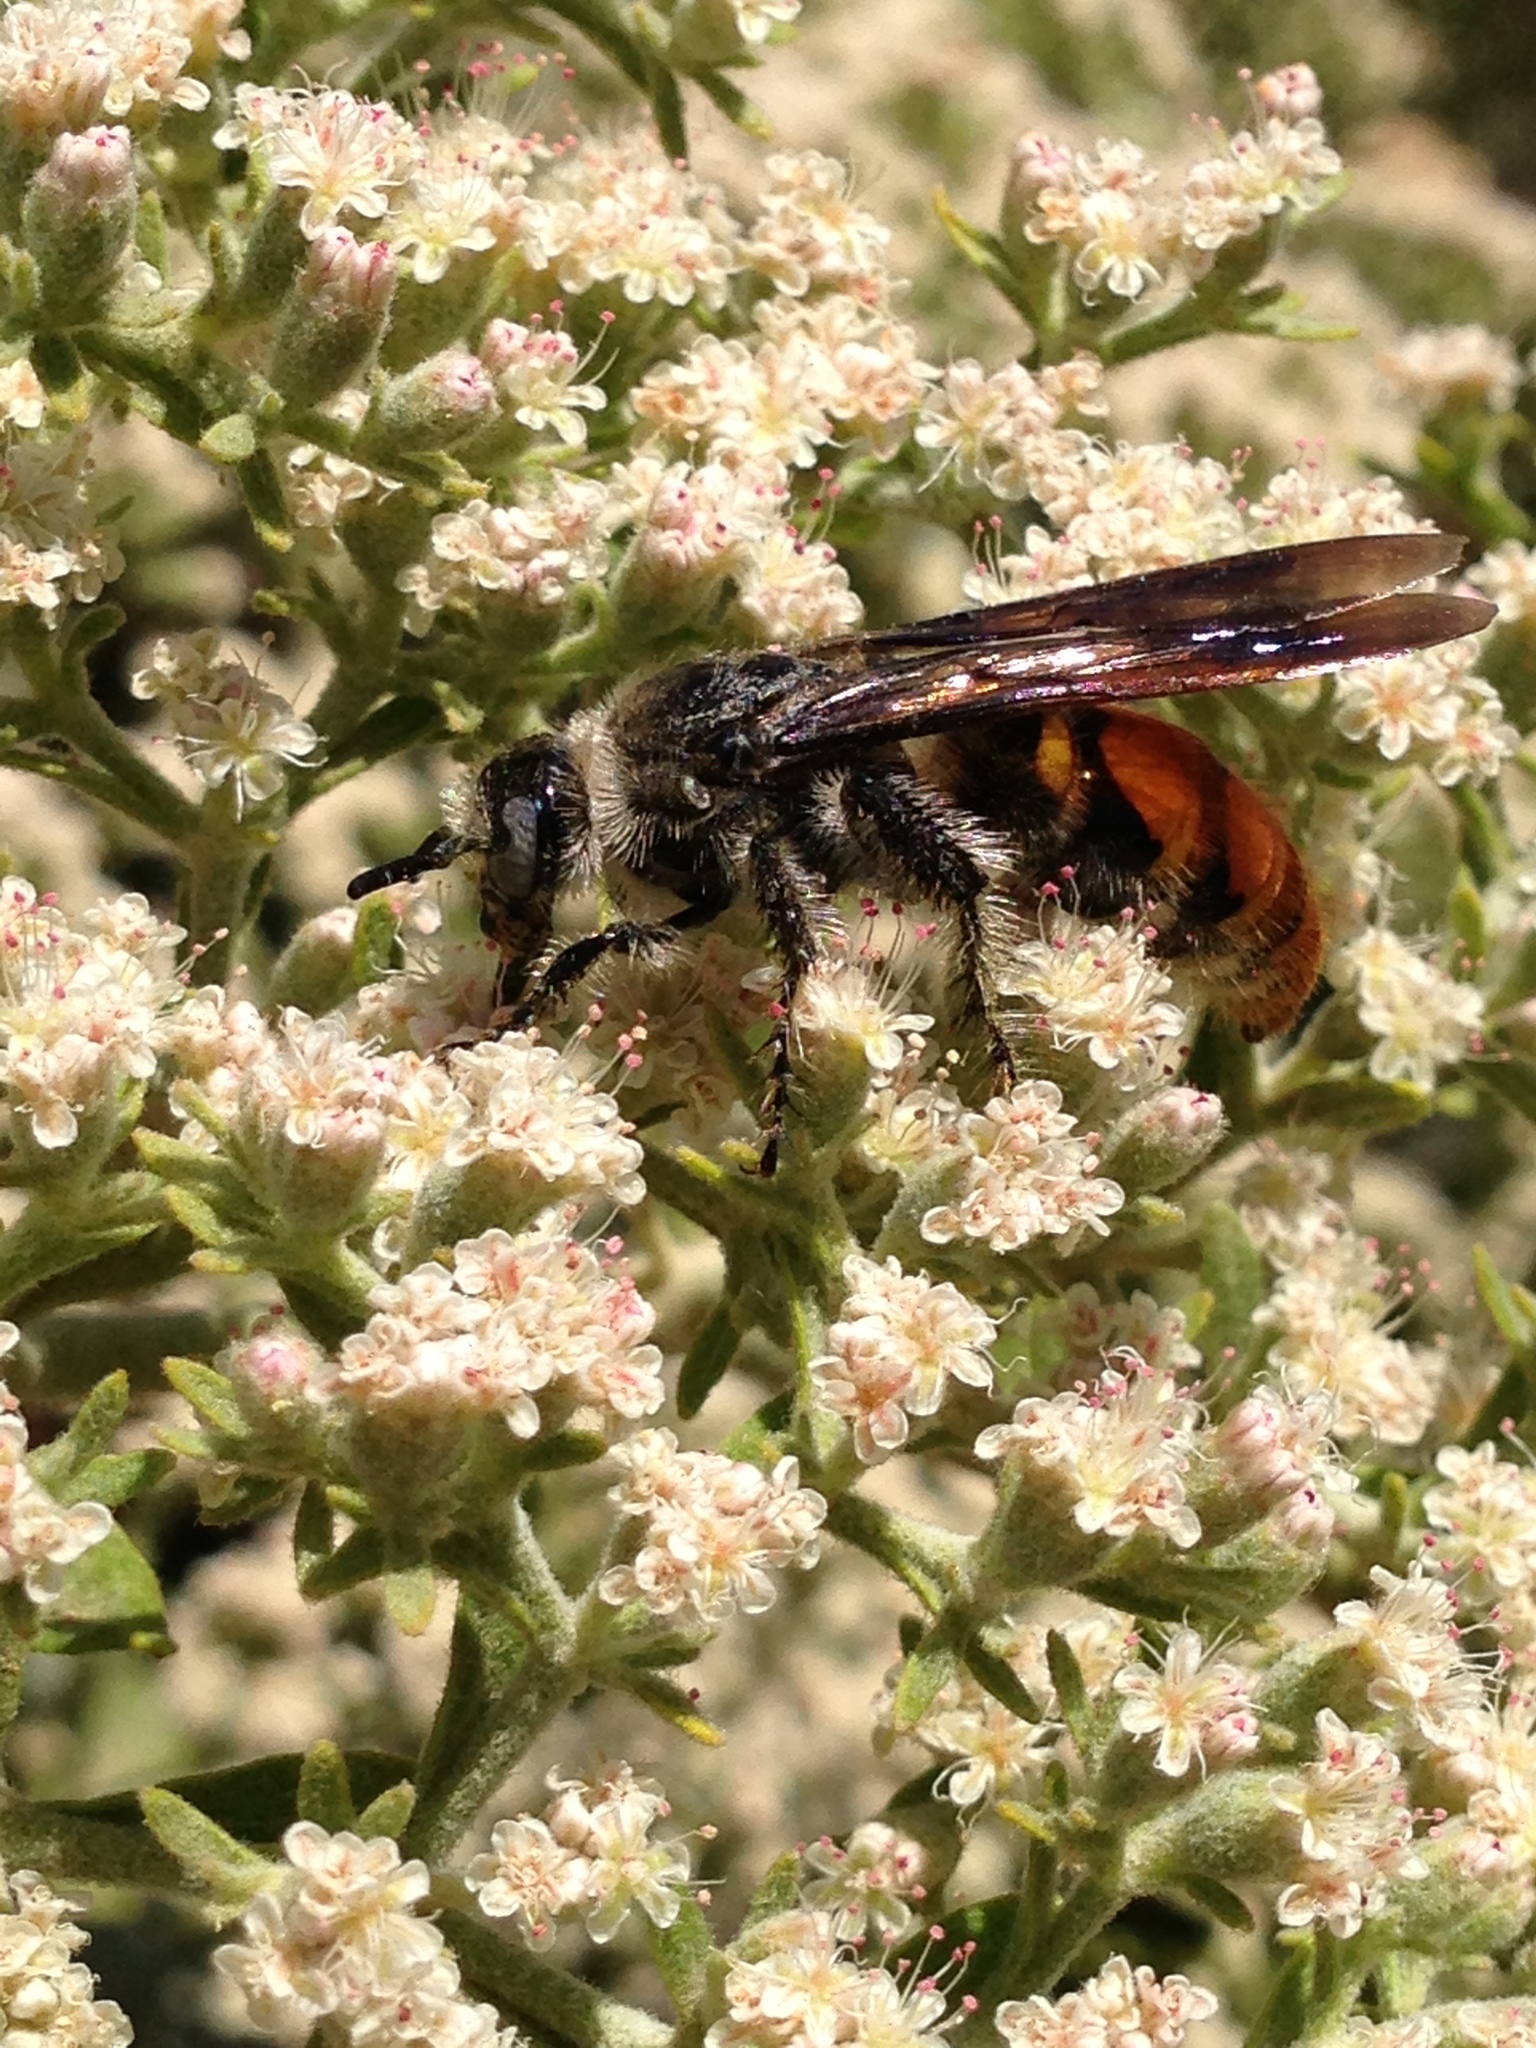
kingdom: Animalia
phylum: Arthropoda
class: Insecta
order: Hymenoptera
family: Scoliidae
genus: Dielis
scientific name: Dielis tolteca
